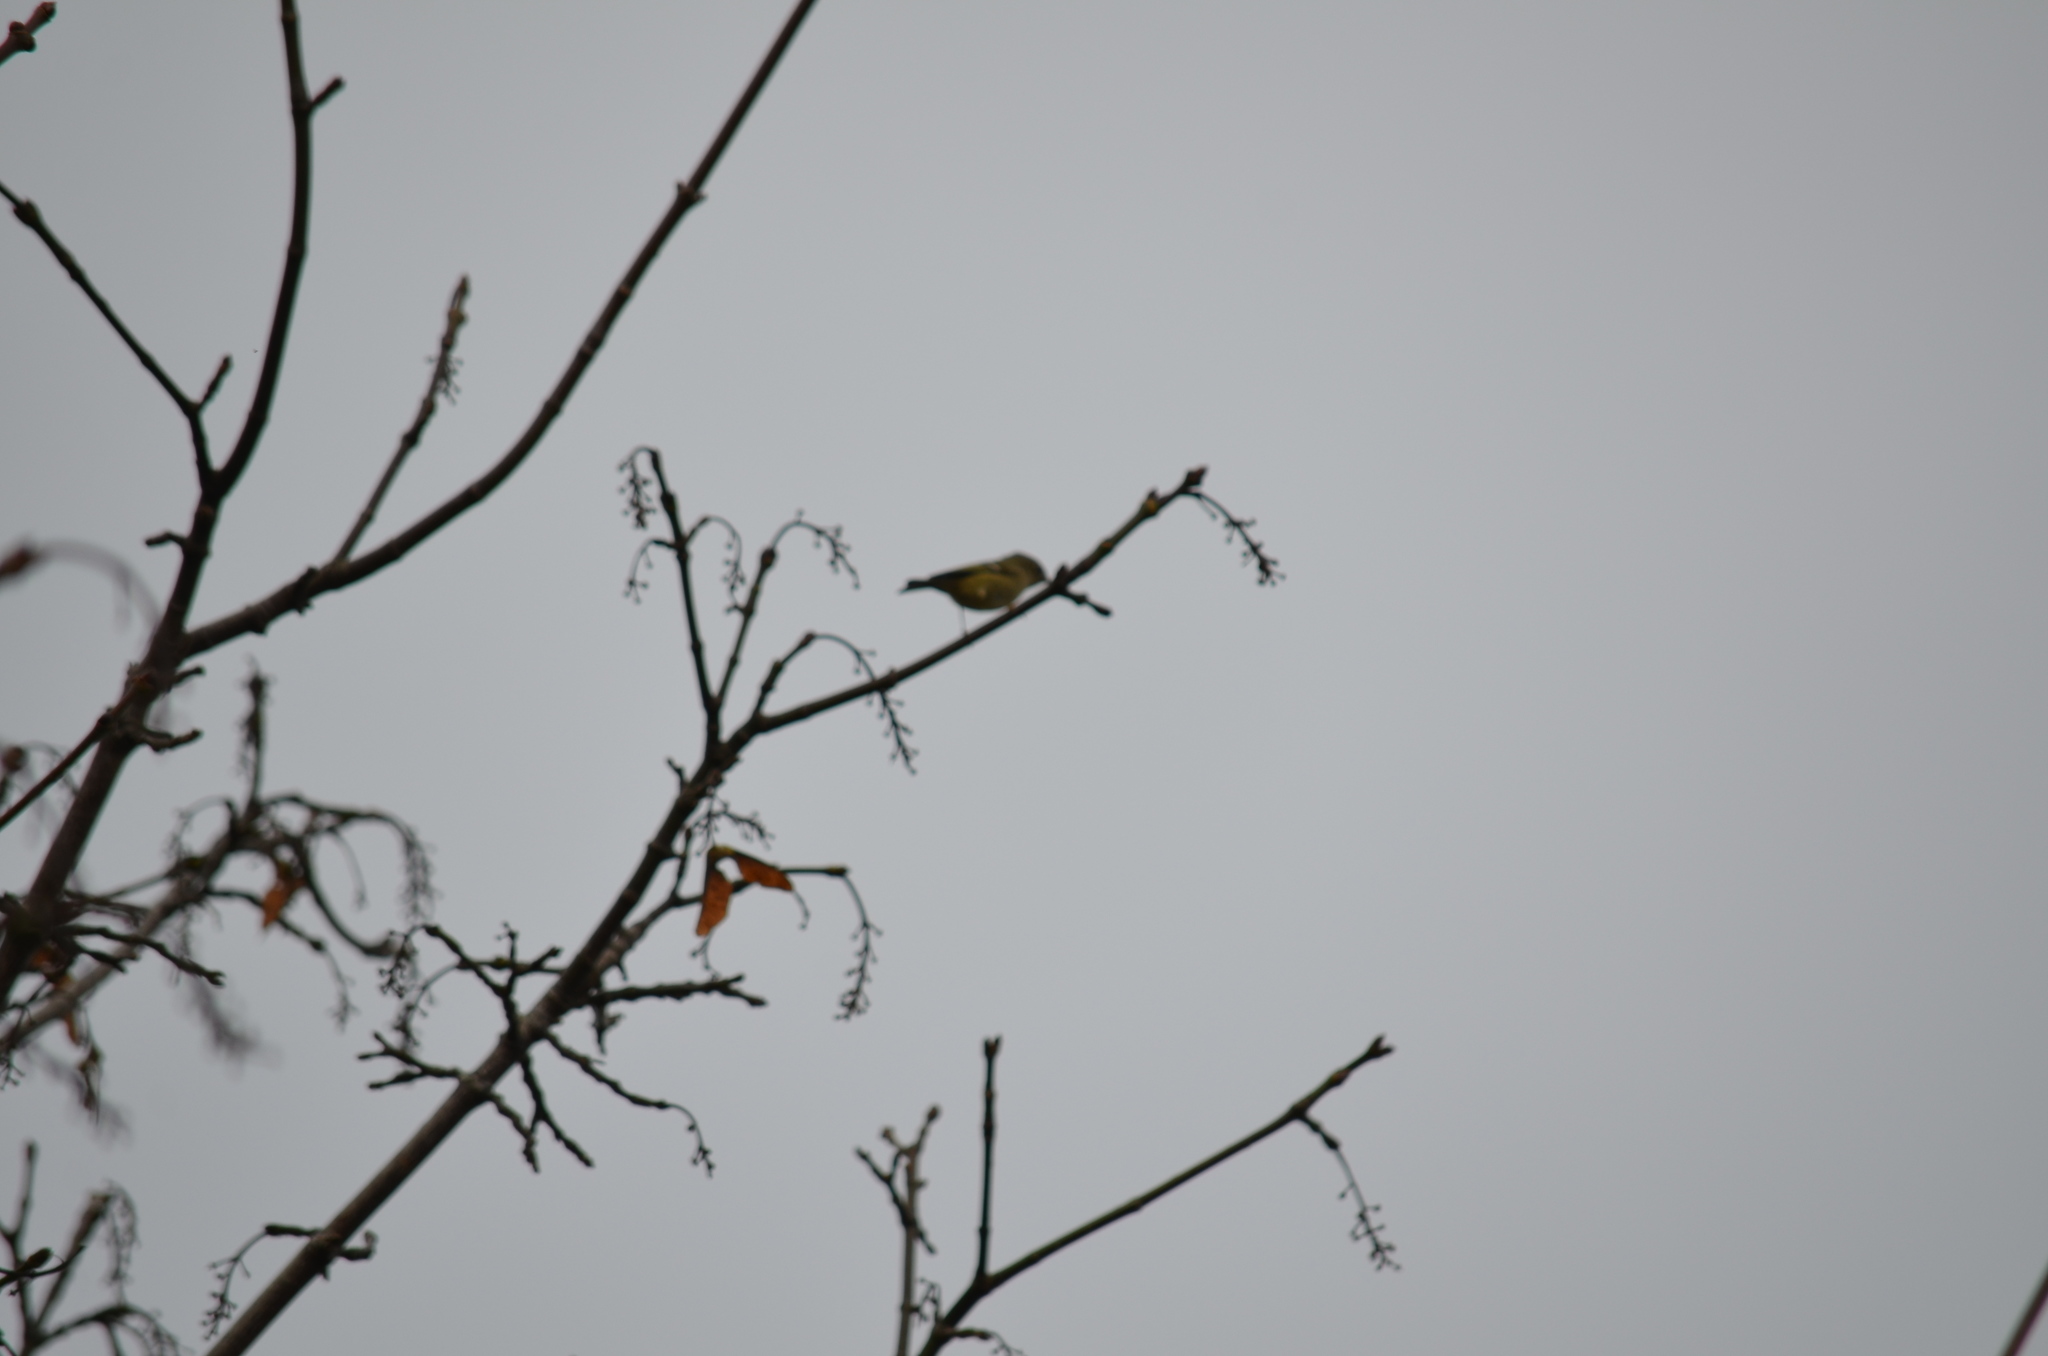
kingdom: Animalia
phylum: Chordata
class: Aves
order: Passeriformes
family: Parulidae
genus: Leiothlypis
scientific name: Leiothlypis celata
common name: Orange-crowned warbler
